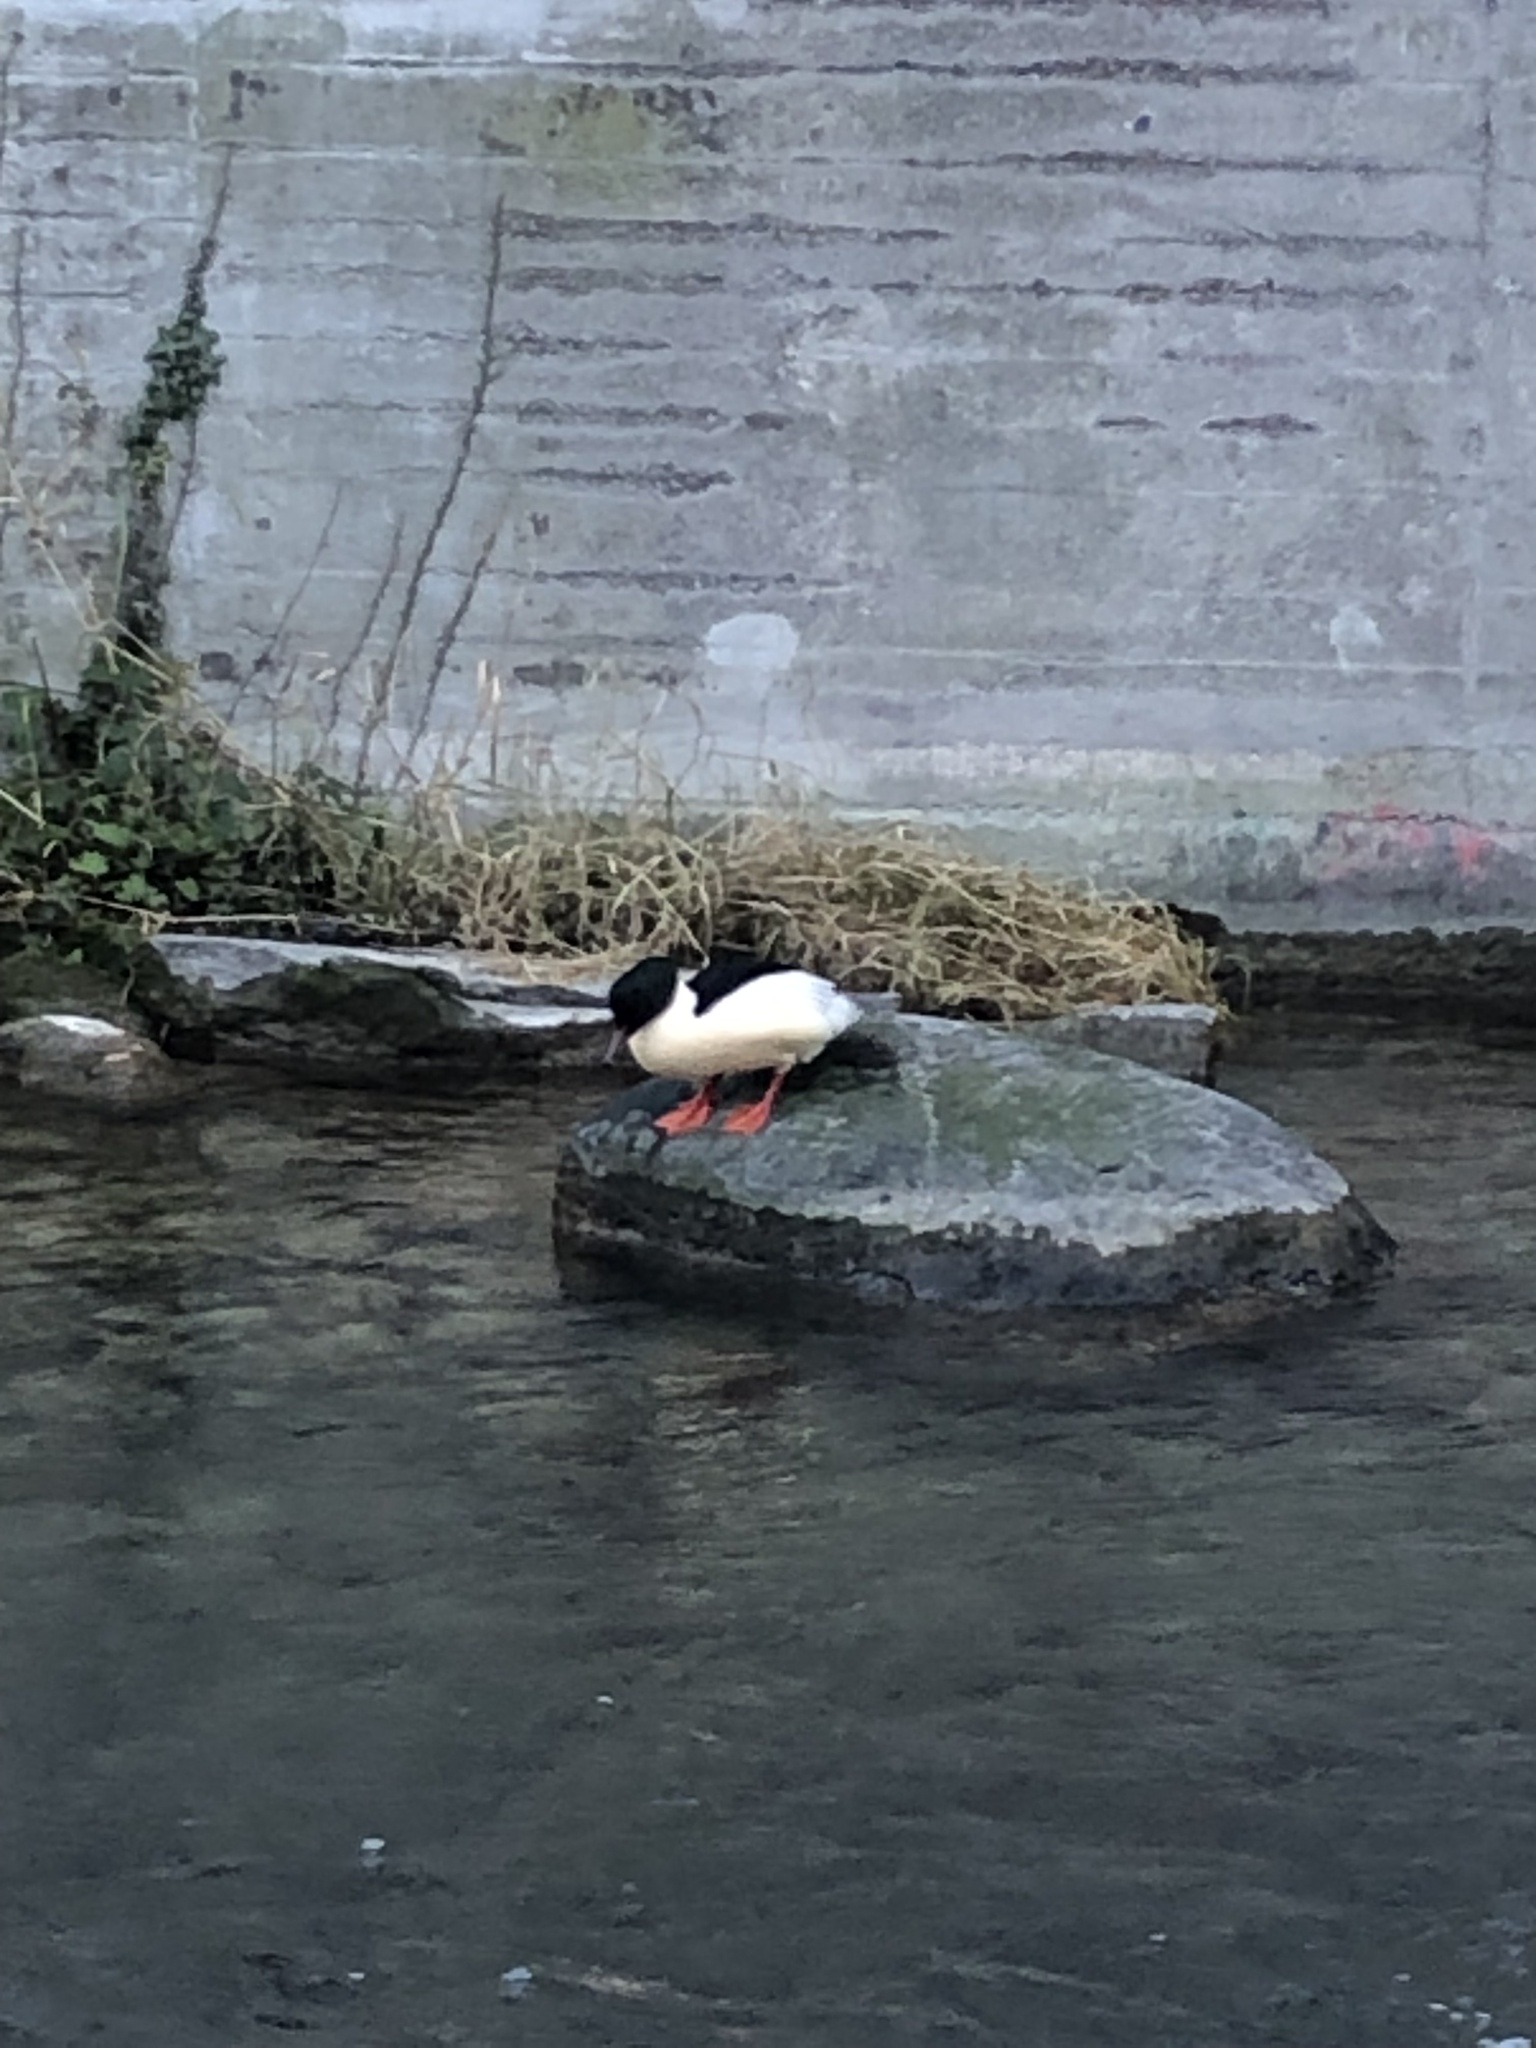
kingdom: Animalia
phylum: Chordata
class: Aves
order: Anseriformes
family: Anatidae
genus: Mergus
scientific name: Mergus merganser
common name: Common merganser
